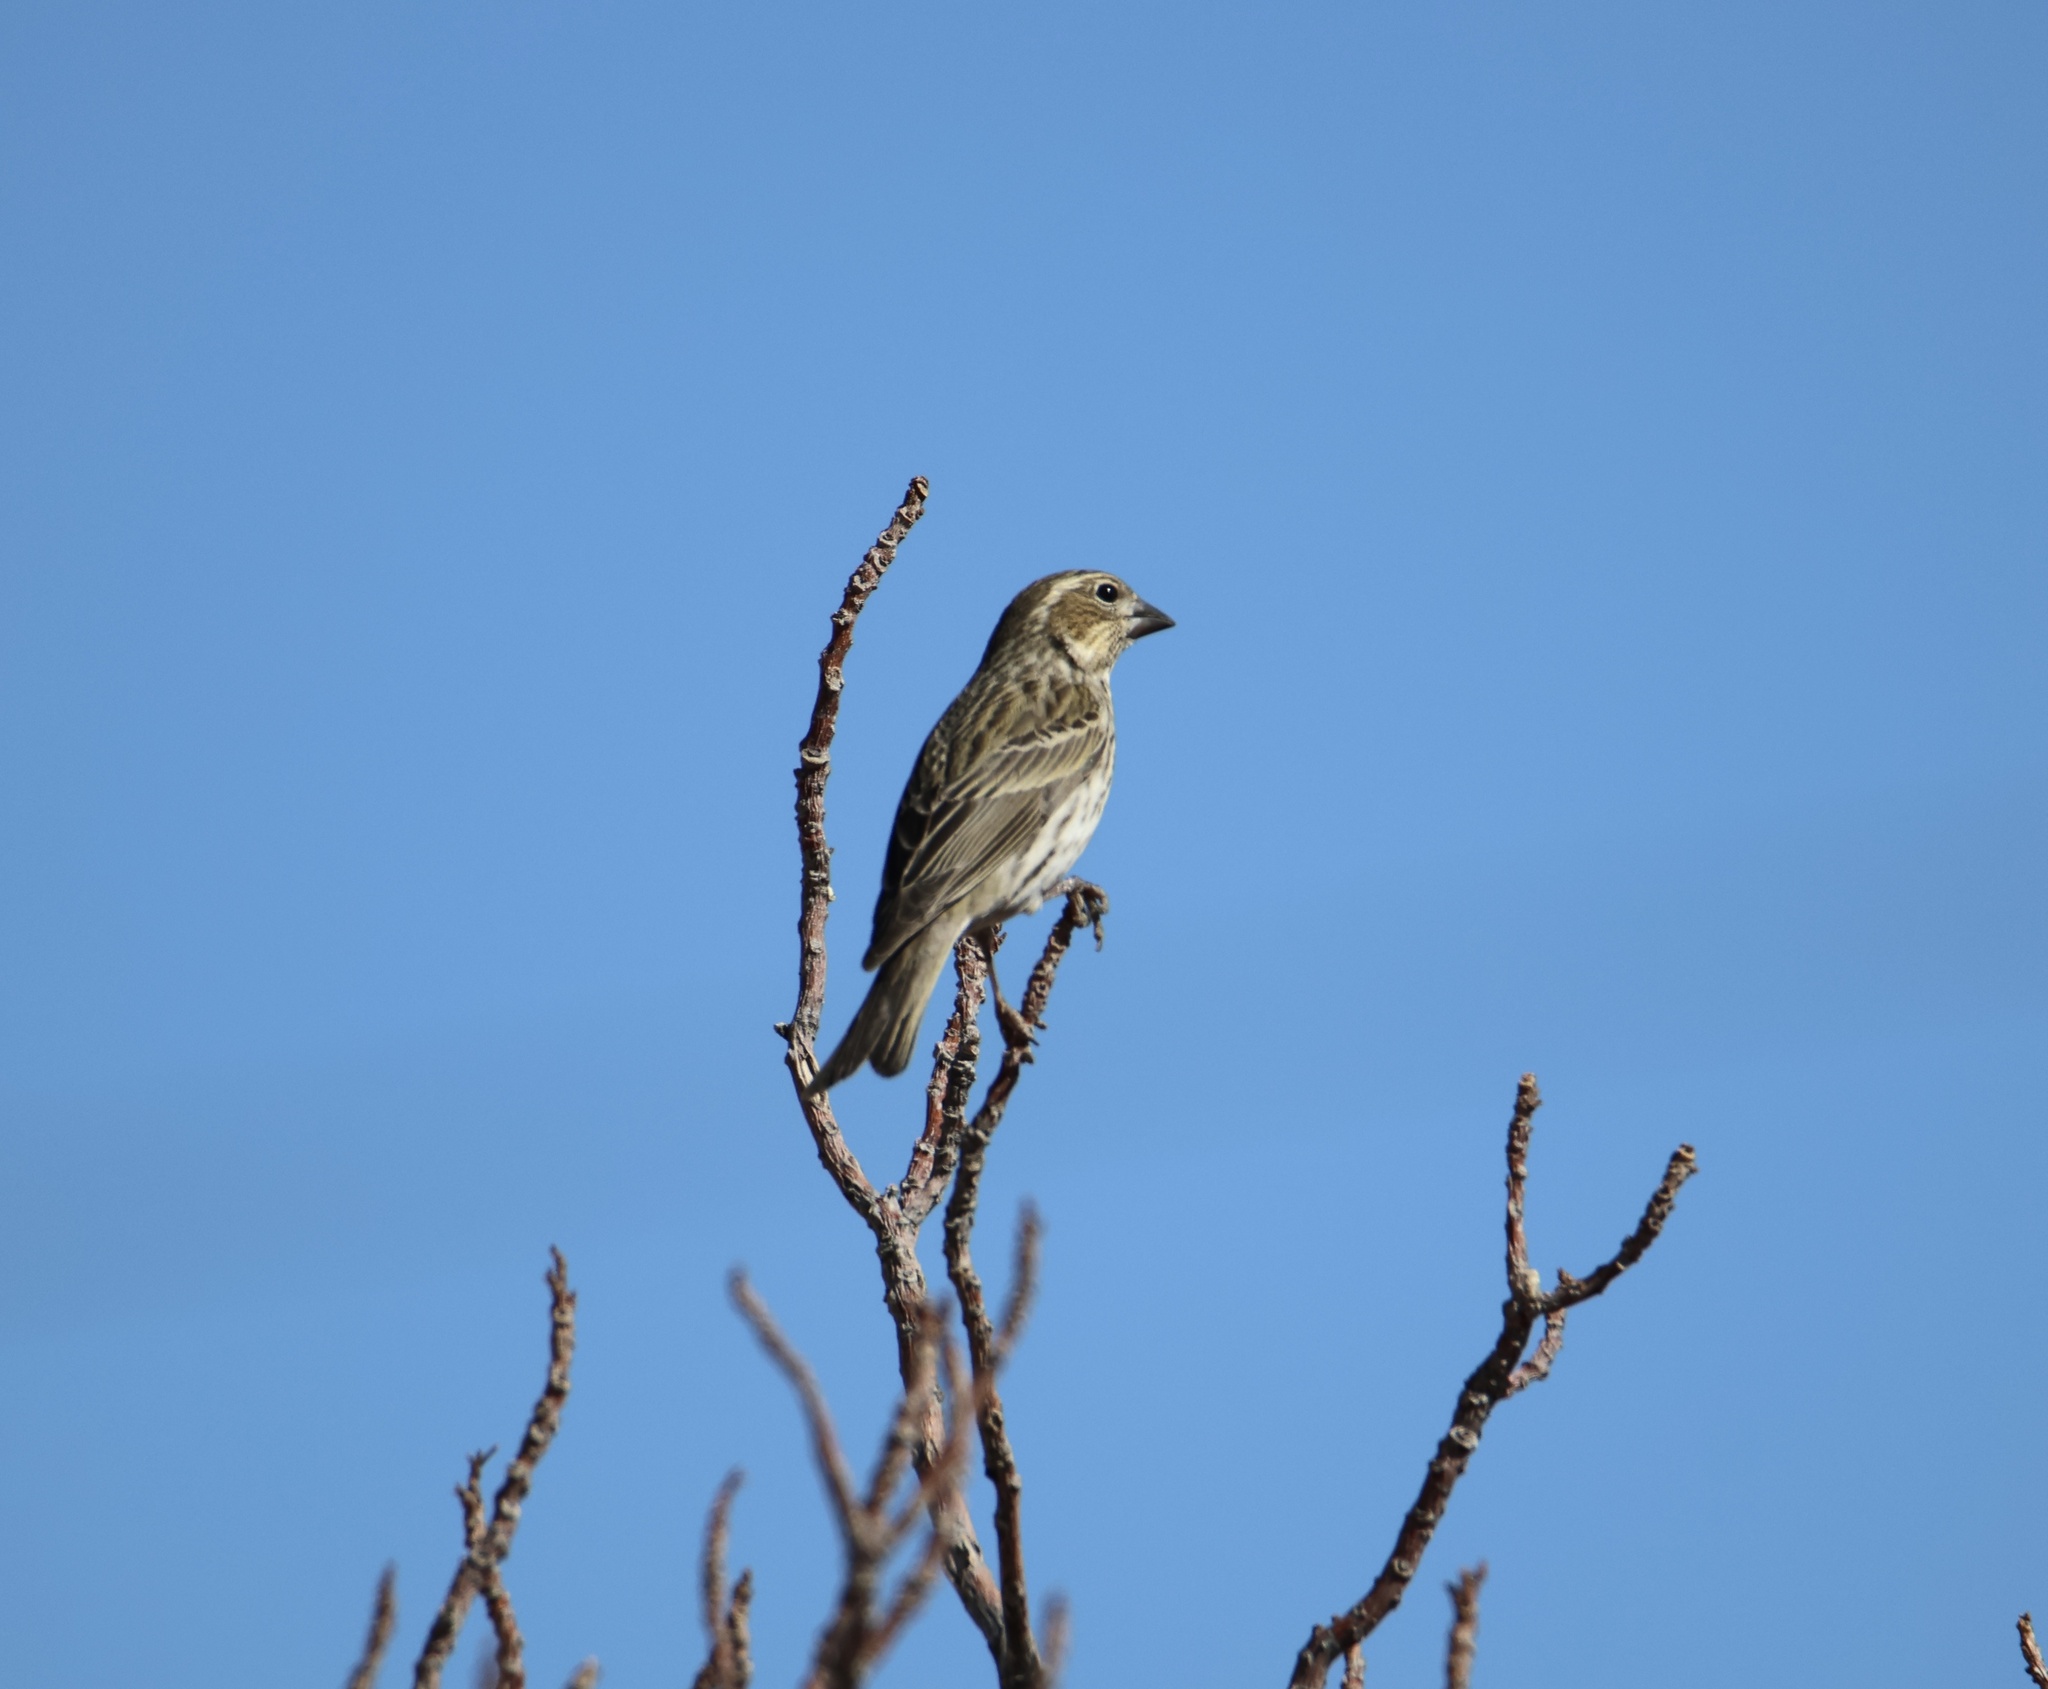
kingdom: Animalia
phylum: Chordata
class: Aves
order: Passeriformes
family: Fringillidae
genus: Haemorhous
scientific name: Haemorhous cassinii
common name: Cassin's finch
